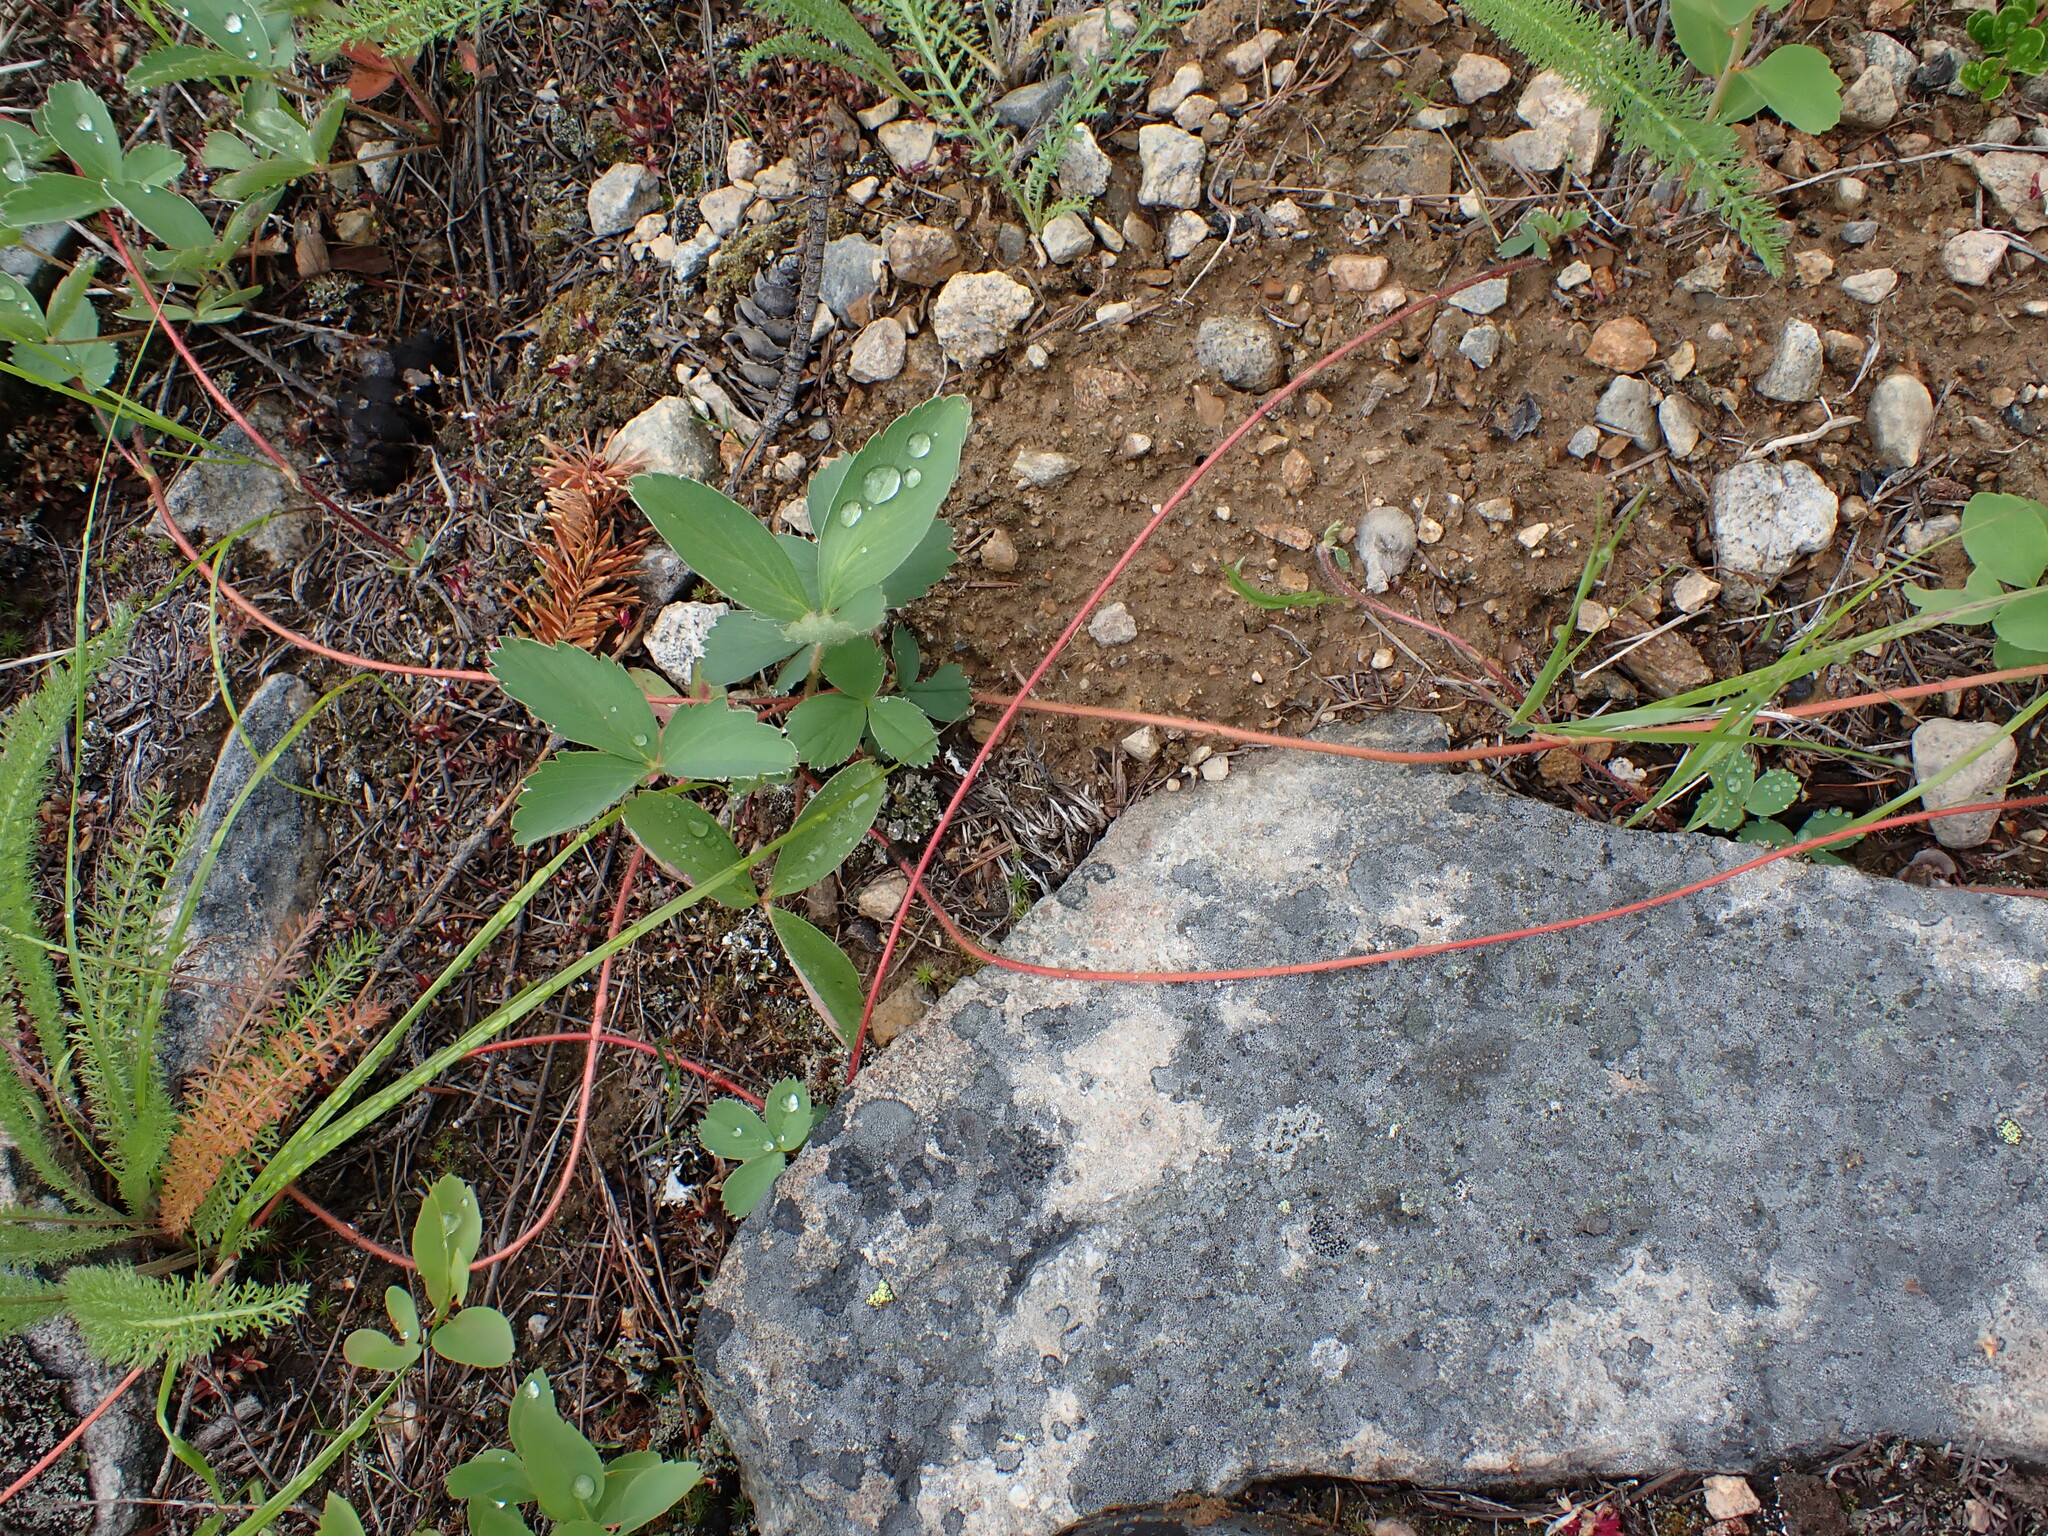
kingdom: Plantae
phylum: Tracheophyta
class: Magnoliopsida
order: Rosales
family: Rosaceae
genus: Fragaria
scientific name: Fragaria virginiana
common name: Thickleaved wild strawberry
